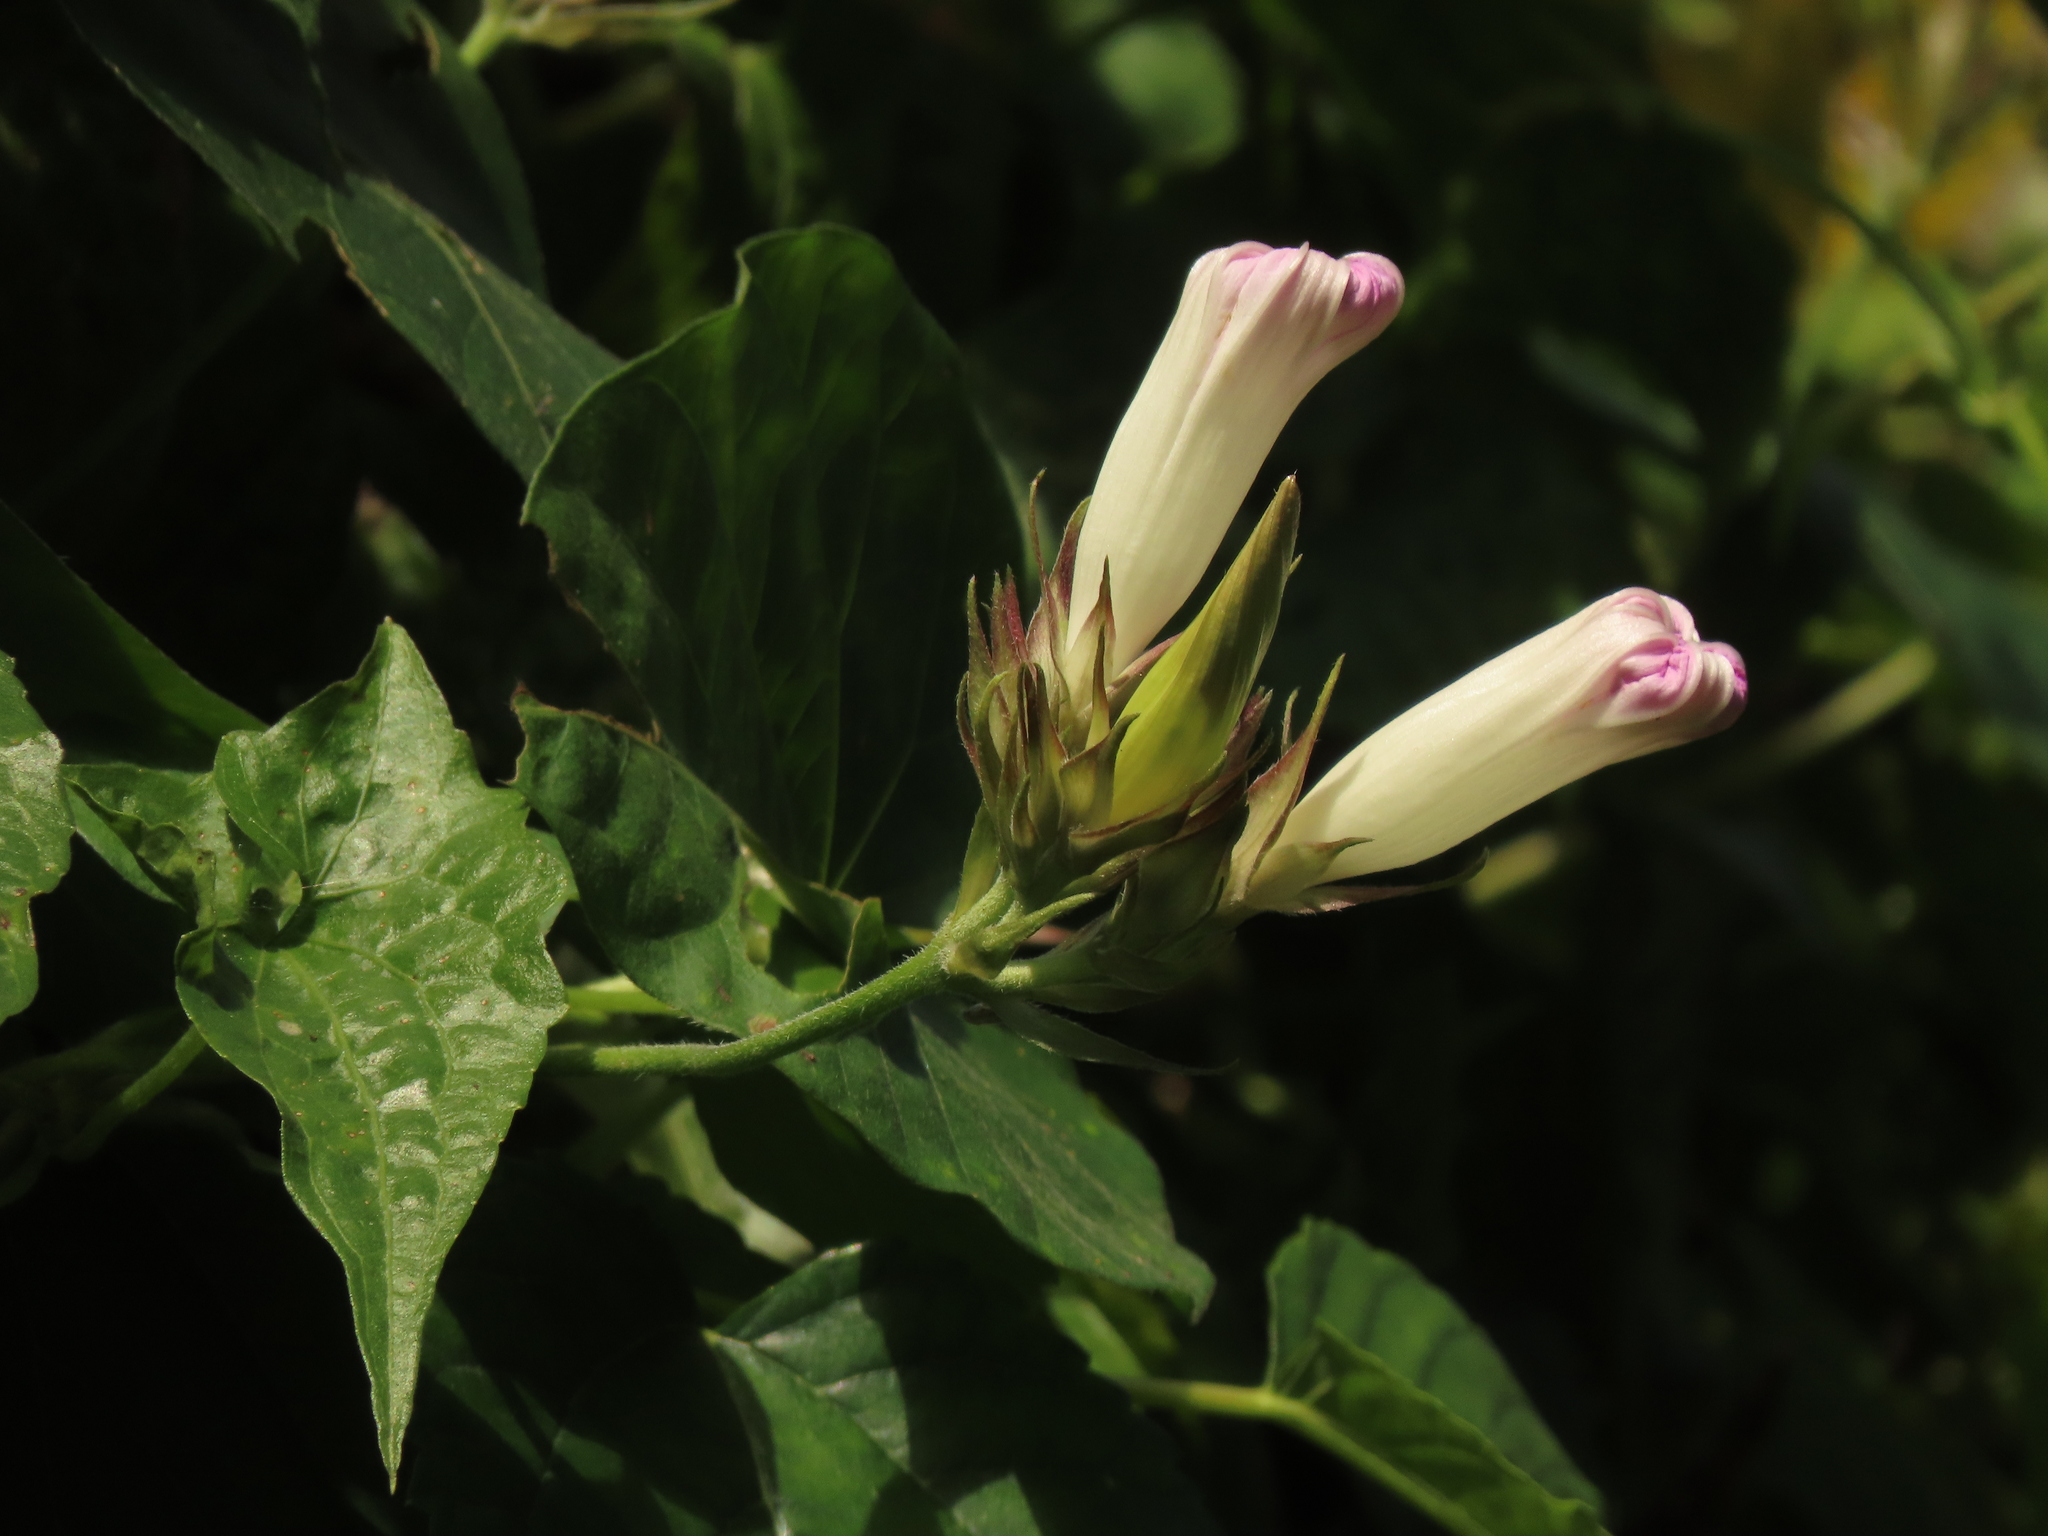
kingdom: Plantae
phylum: Tracheophyta
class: Magnoliopsida
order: Solanales
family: Convolvulaceae
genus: Ipomoea
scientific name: Ipomoea indica
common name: Blue dawnflower
